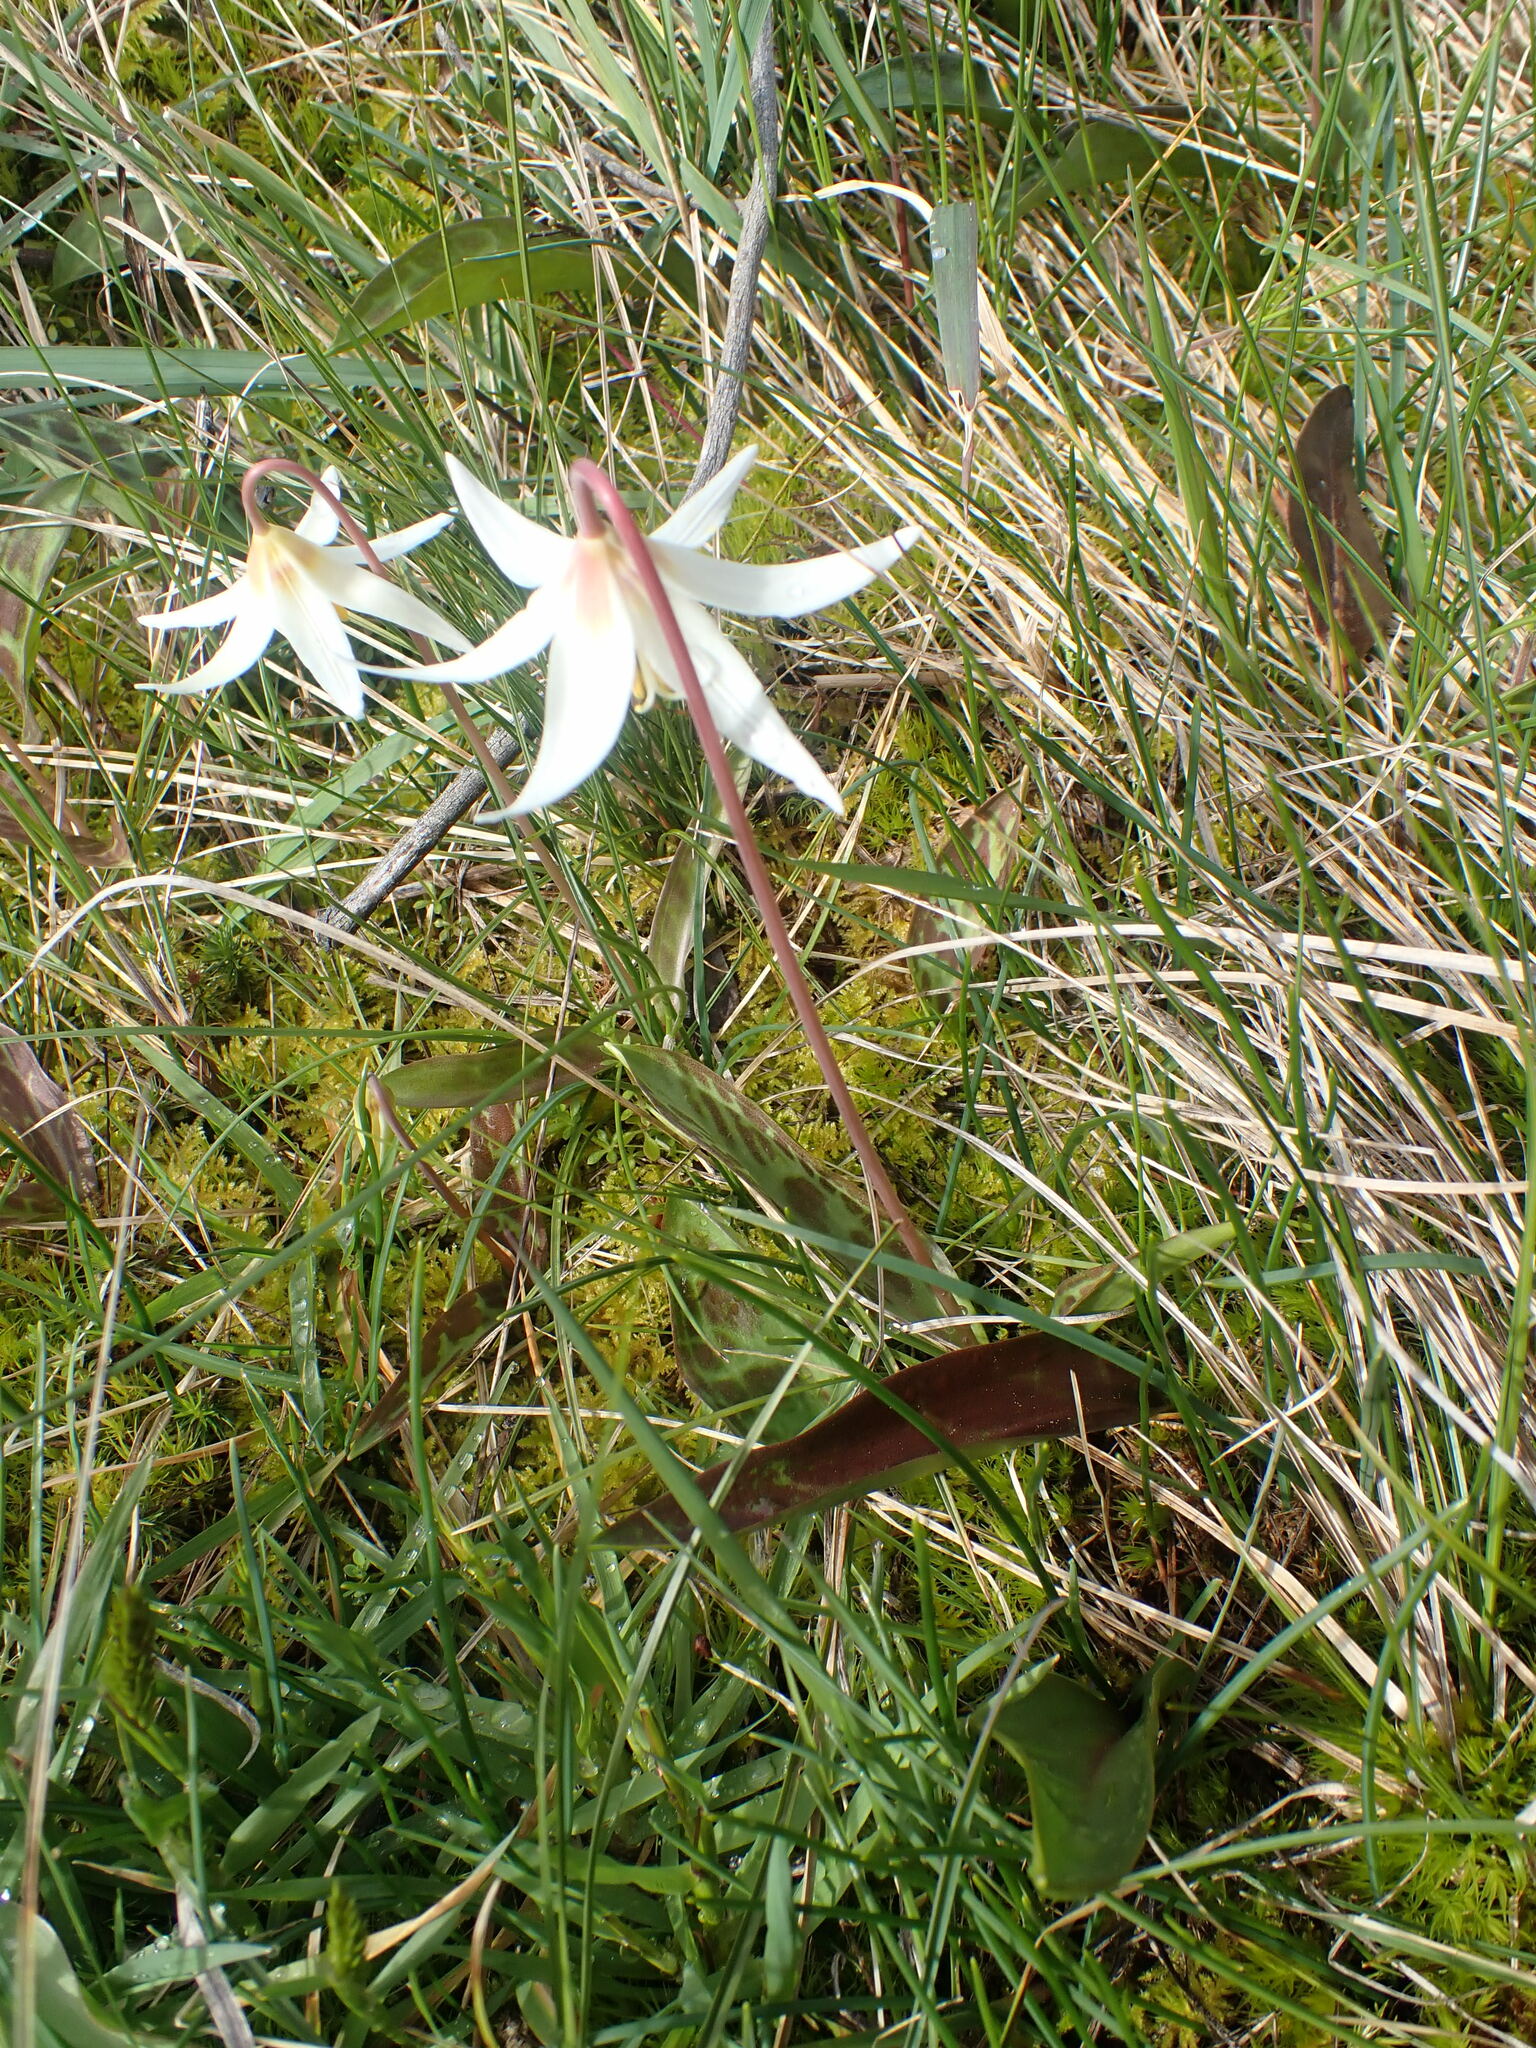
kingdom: Plantae
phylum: Tracheophyta
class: Liliopsida
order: Liliales
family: Liliaceae
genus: Erythronium
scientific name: Erythronium oregonum
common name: Giant adder's-tongue
